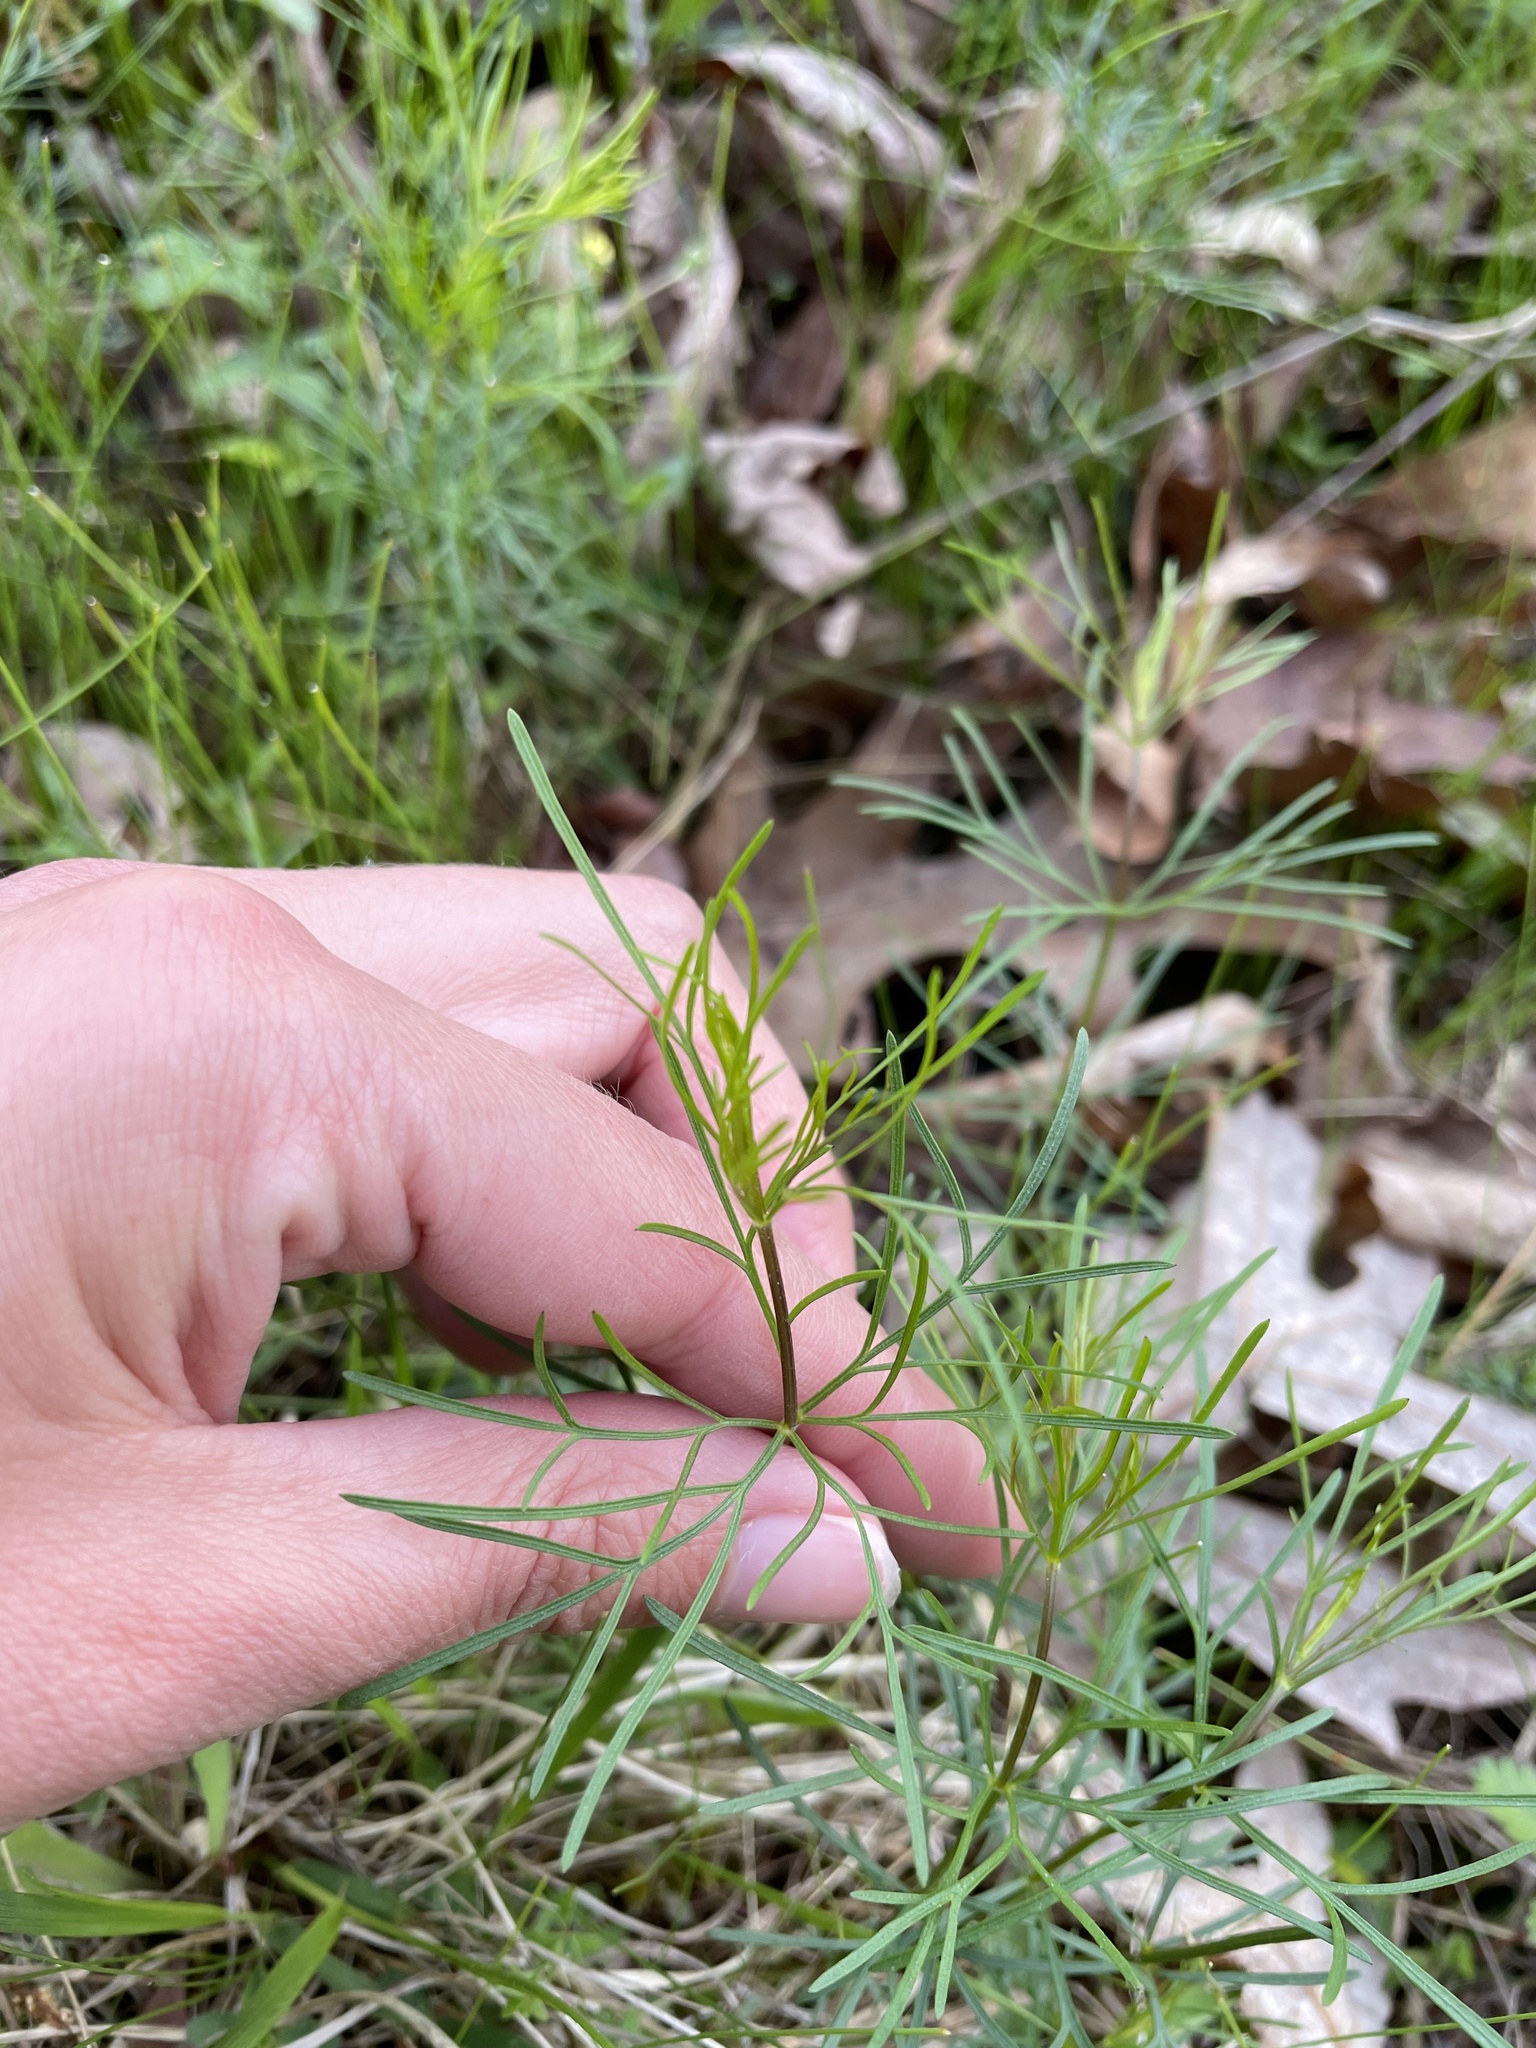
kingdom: Plantae
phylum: Tracheophyta
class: Magnoliopsida
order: Asterales
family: Asteraceae
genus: Coreopsis
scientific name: Coreopsis verticillata
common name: Whorled tickseed
